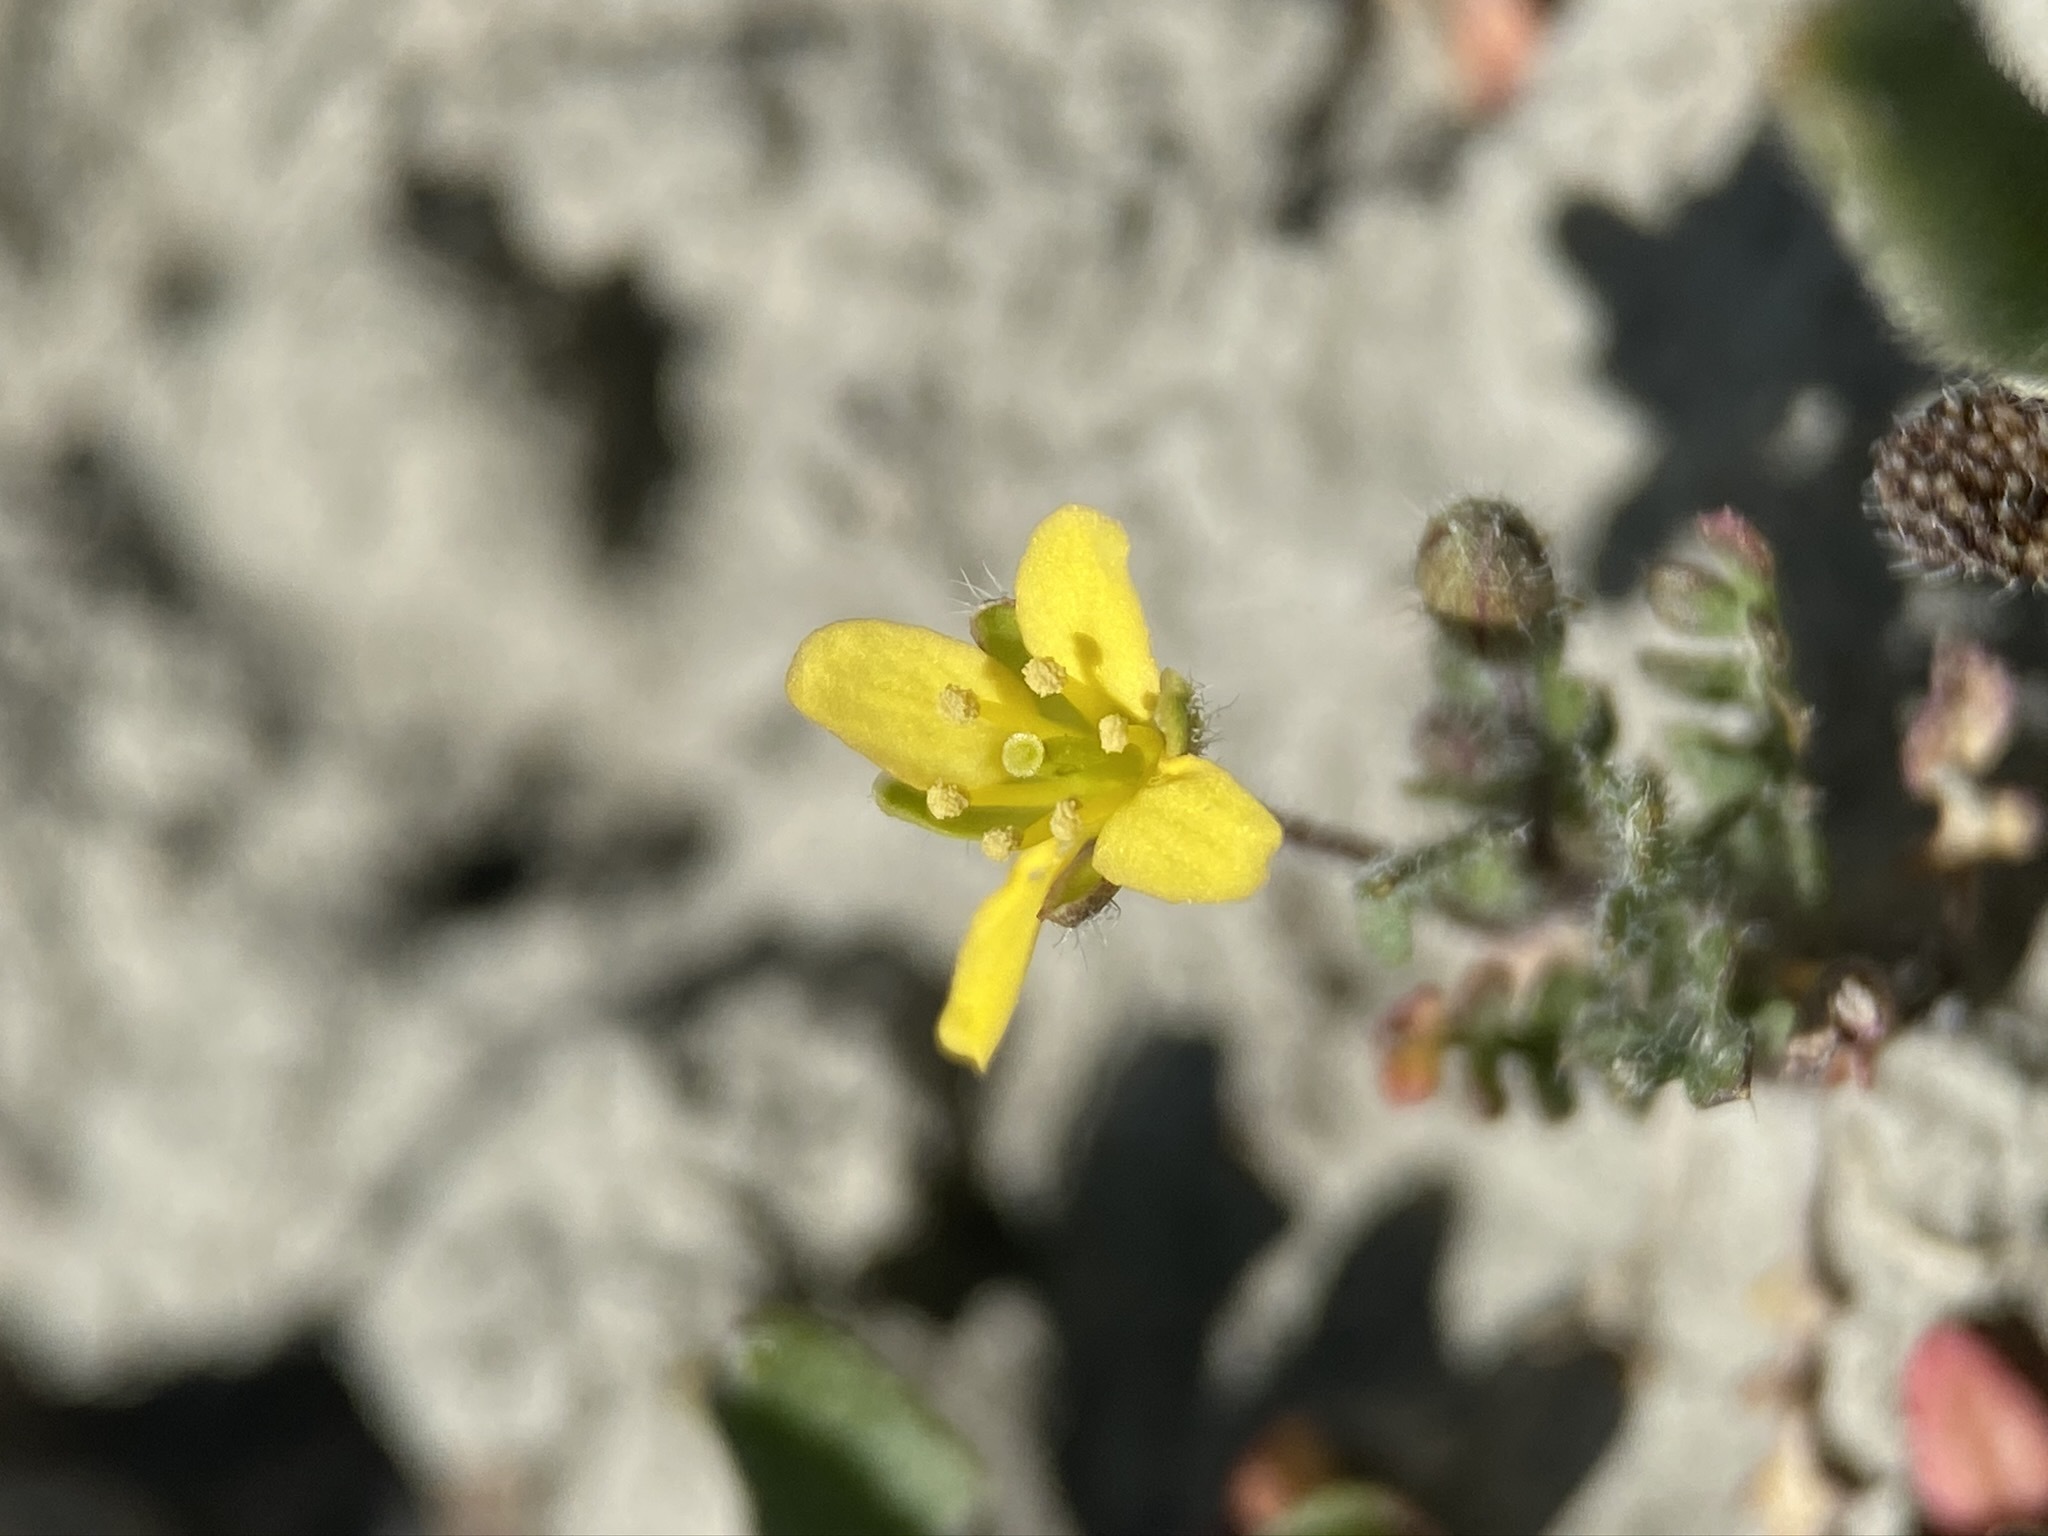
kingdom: Plantae
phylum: Tracheophyta
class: Magnoliopsida
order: Brassicales
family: Brassicaceae
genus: Tropidocarpum
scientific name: Tropidocarpum gracile
